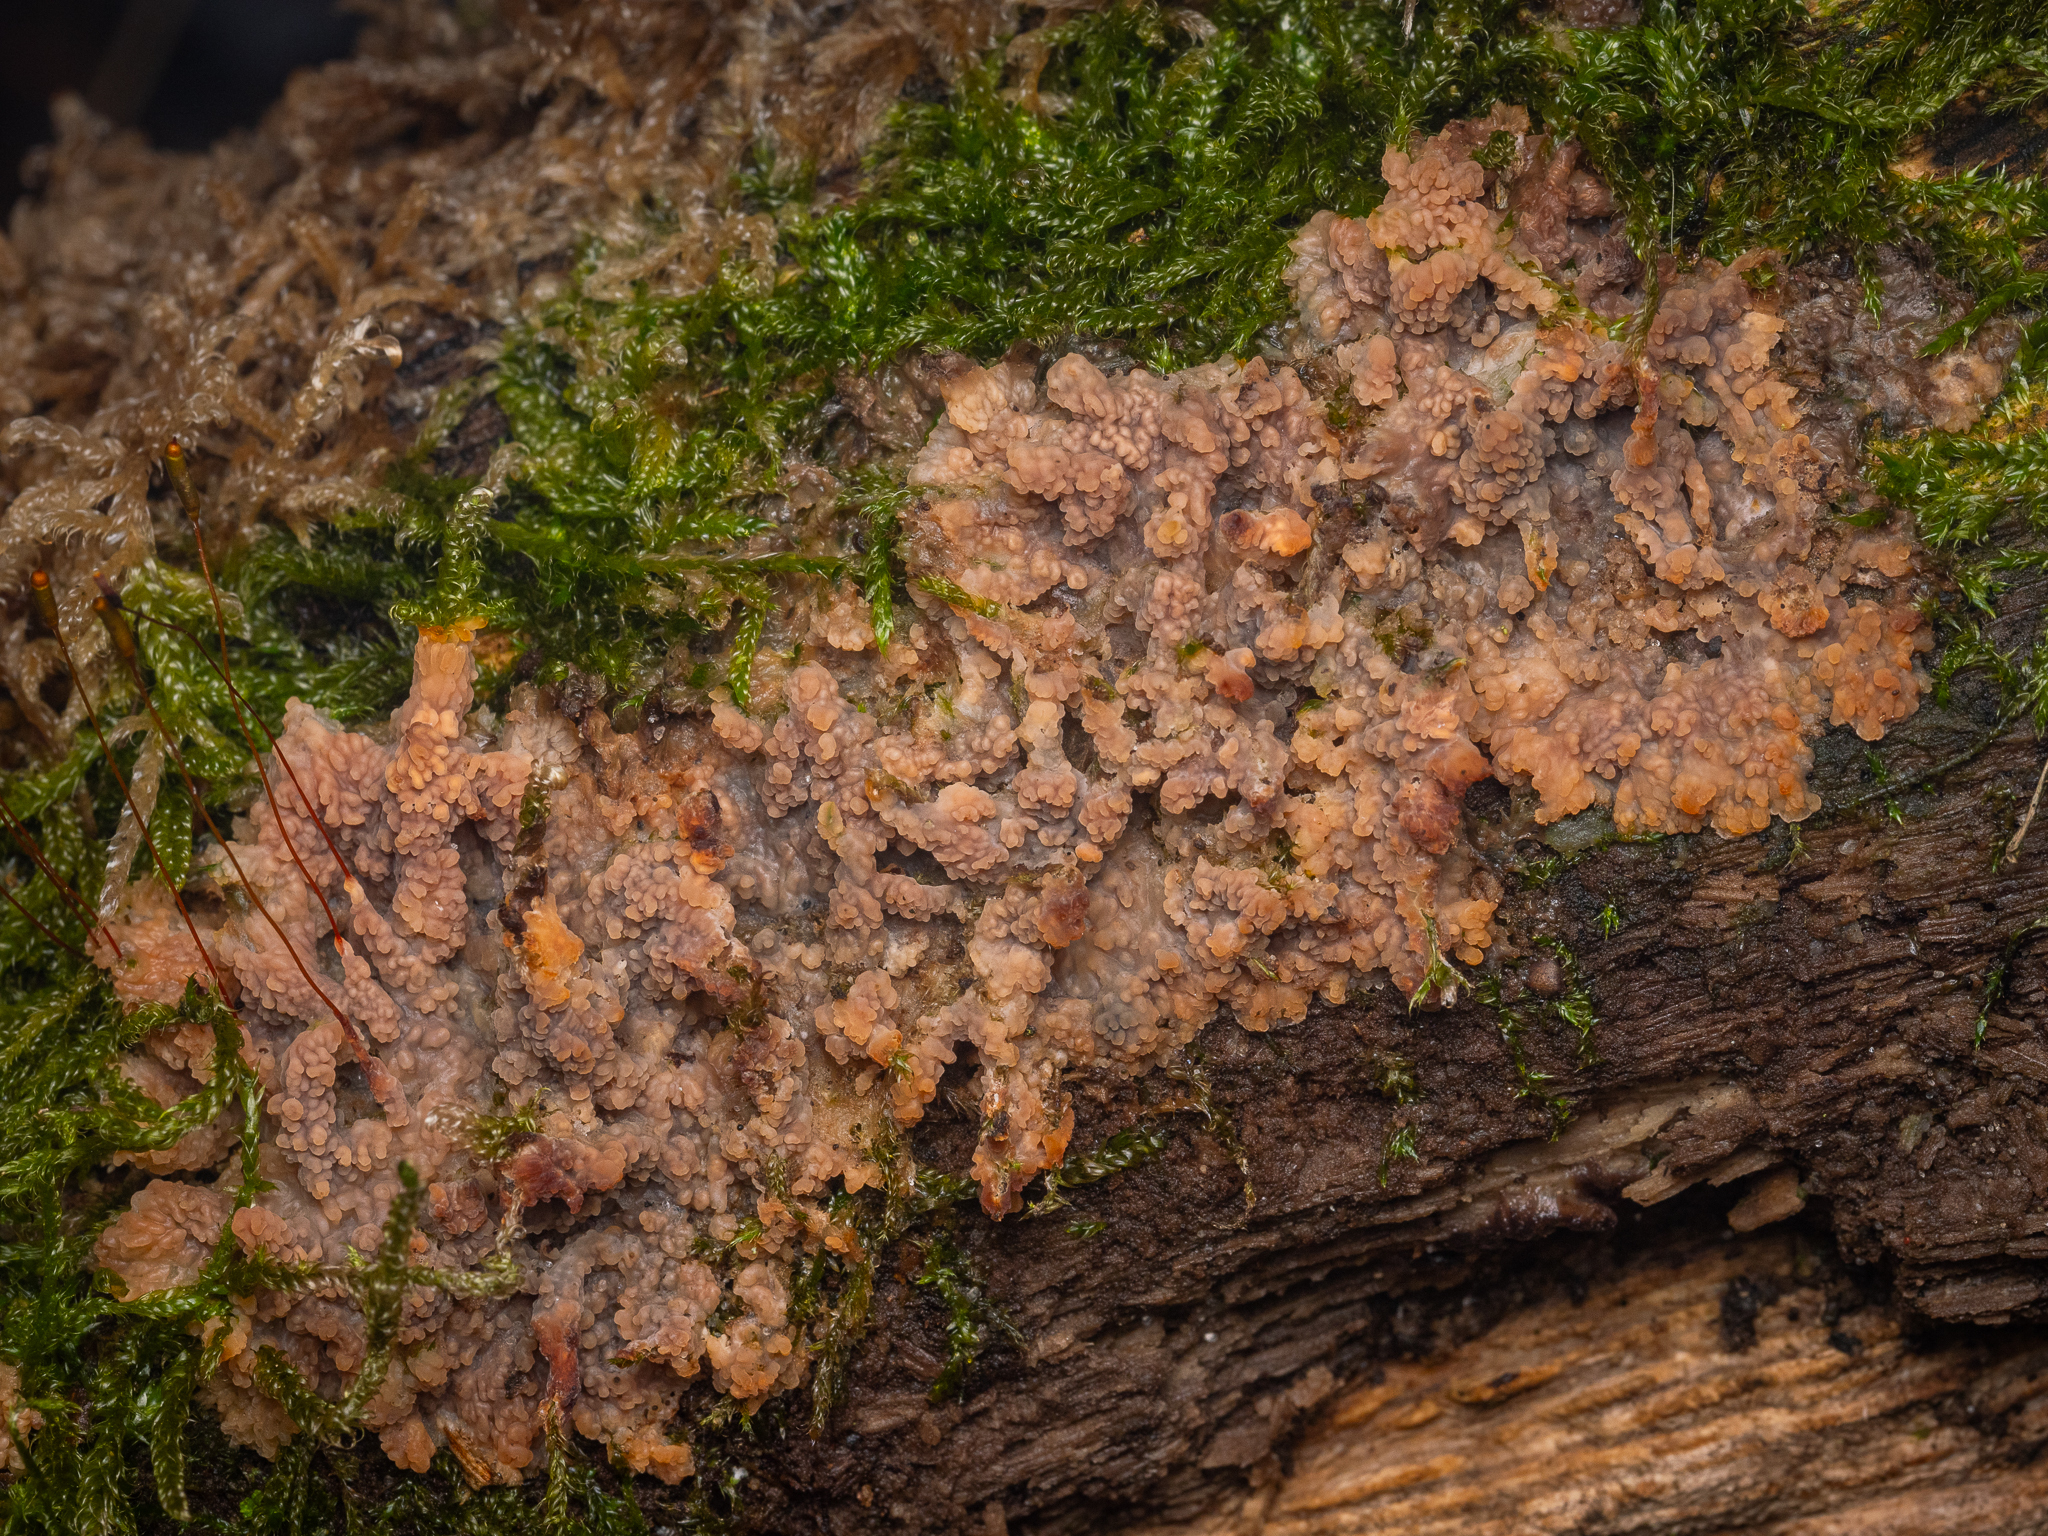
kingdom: Fungi
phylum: Basidiomycota
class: Agaricomycetes
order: Polyporales
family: Meruliaceae
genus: Phlebia
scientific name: Phlebia radiata
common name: Wrinkled crust
